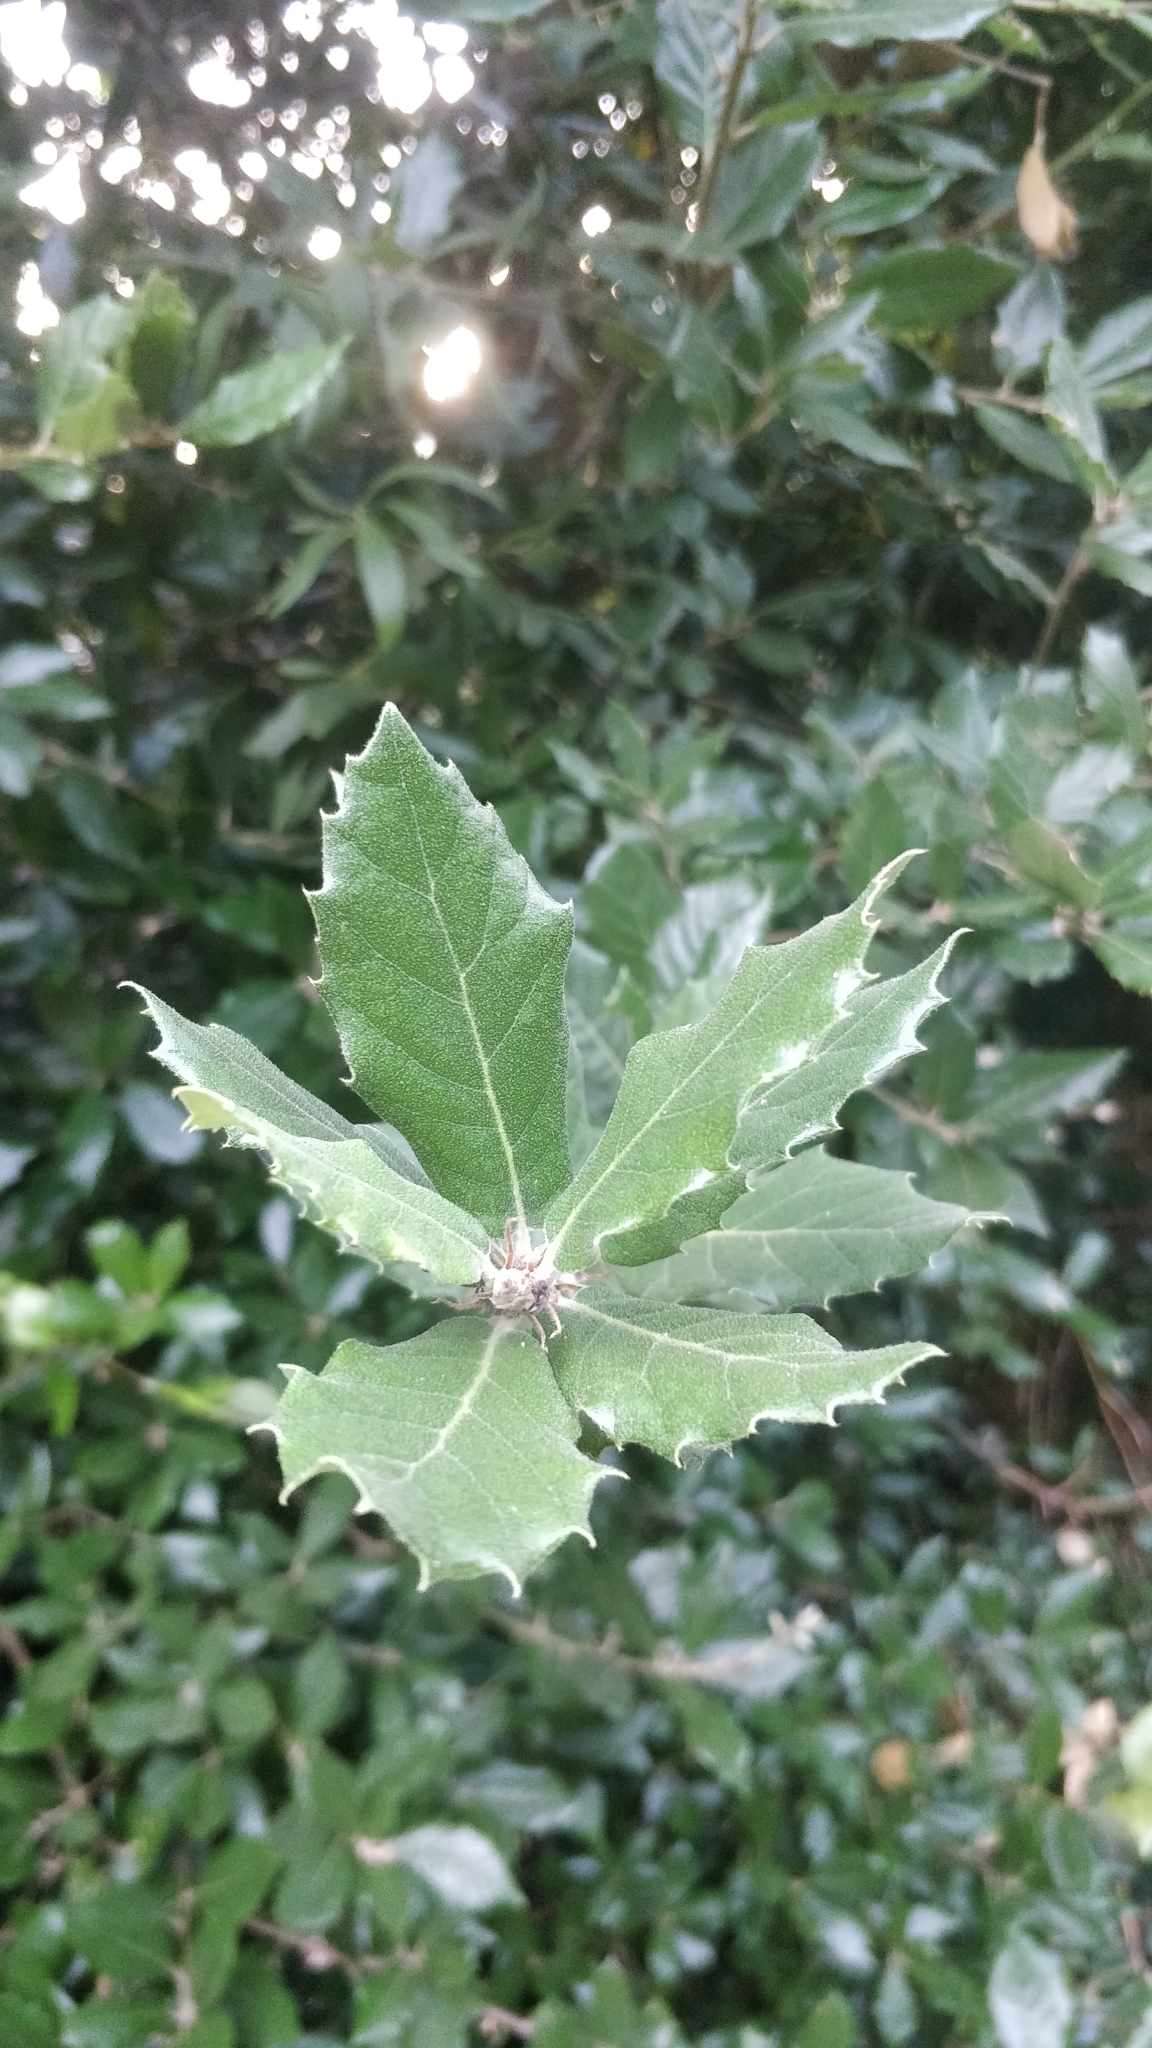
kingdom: Plantae
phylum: Tracheophyta
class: Magnoliopsida
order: Fagales
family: Fagaceae
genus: Quercus
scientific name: Quercus ilex
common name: Evergreen oak
